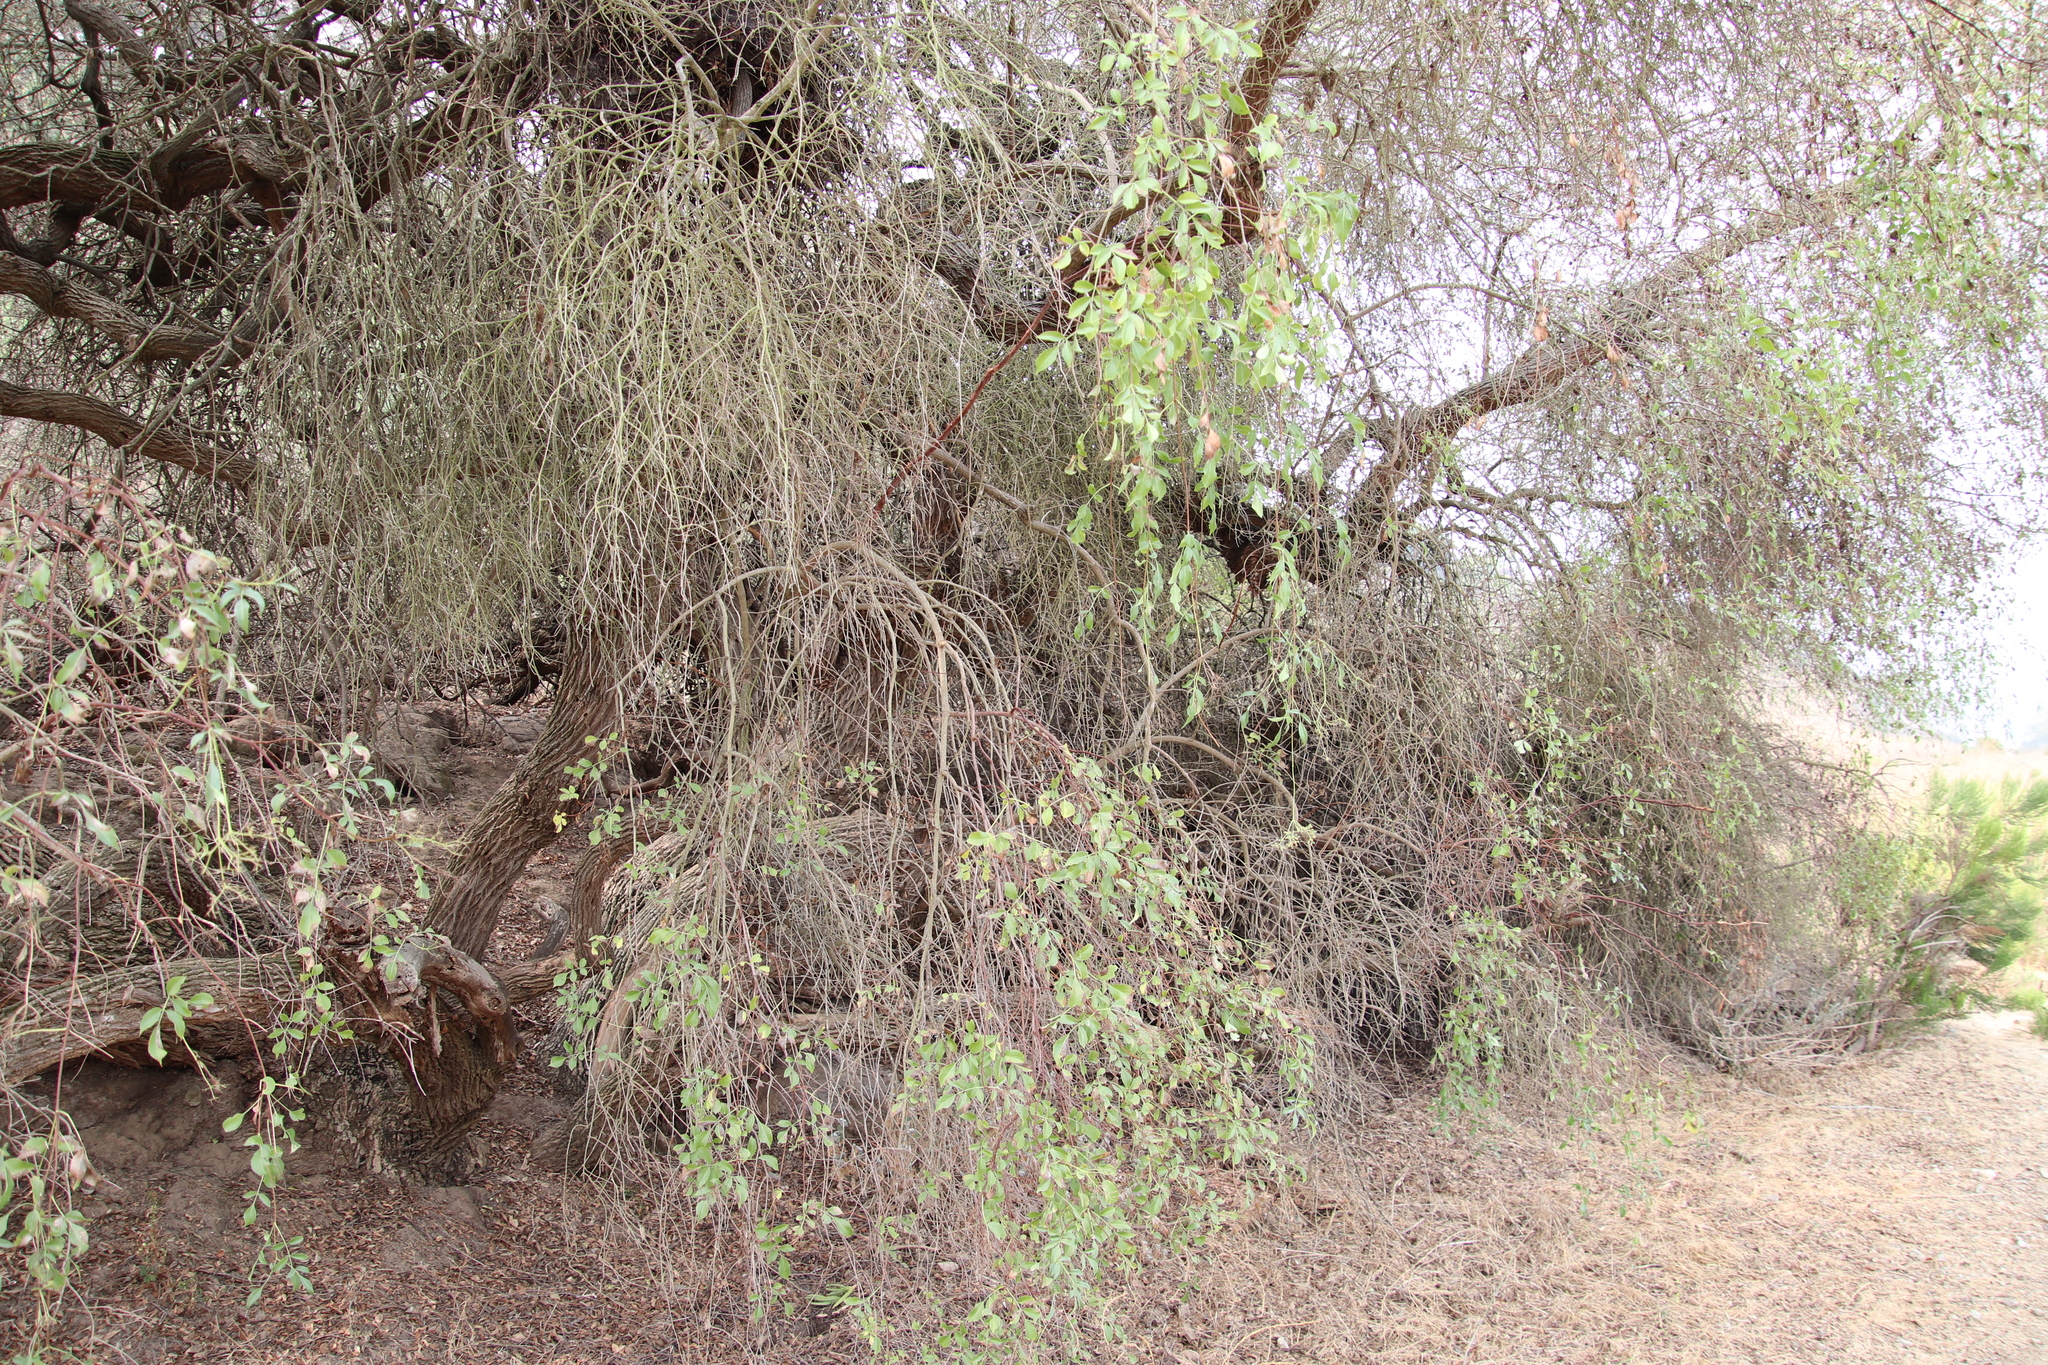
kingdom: Plantae
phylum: Tracheophyta
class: Magnoliopsida
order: Dipsacales
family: Viburnaceae
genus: Sambucus
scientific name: Sambucus cerulea
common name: Blue elder
